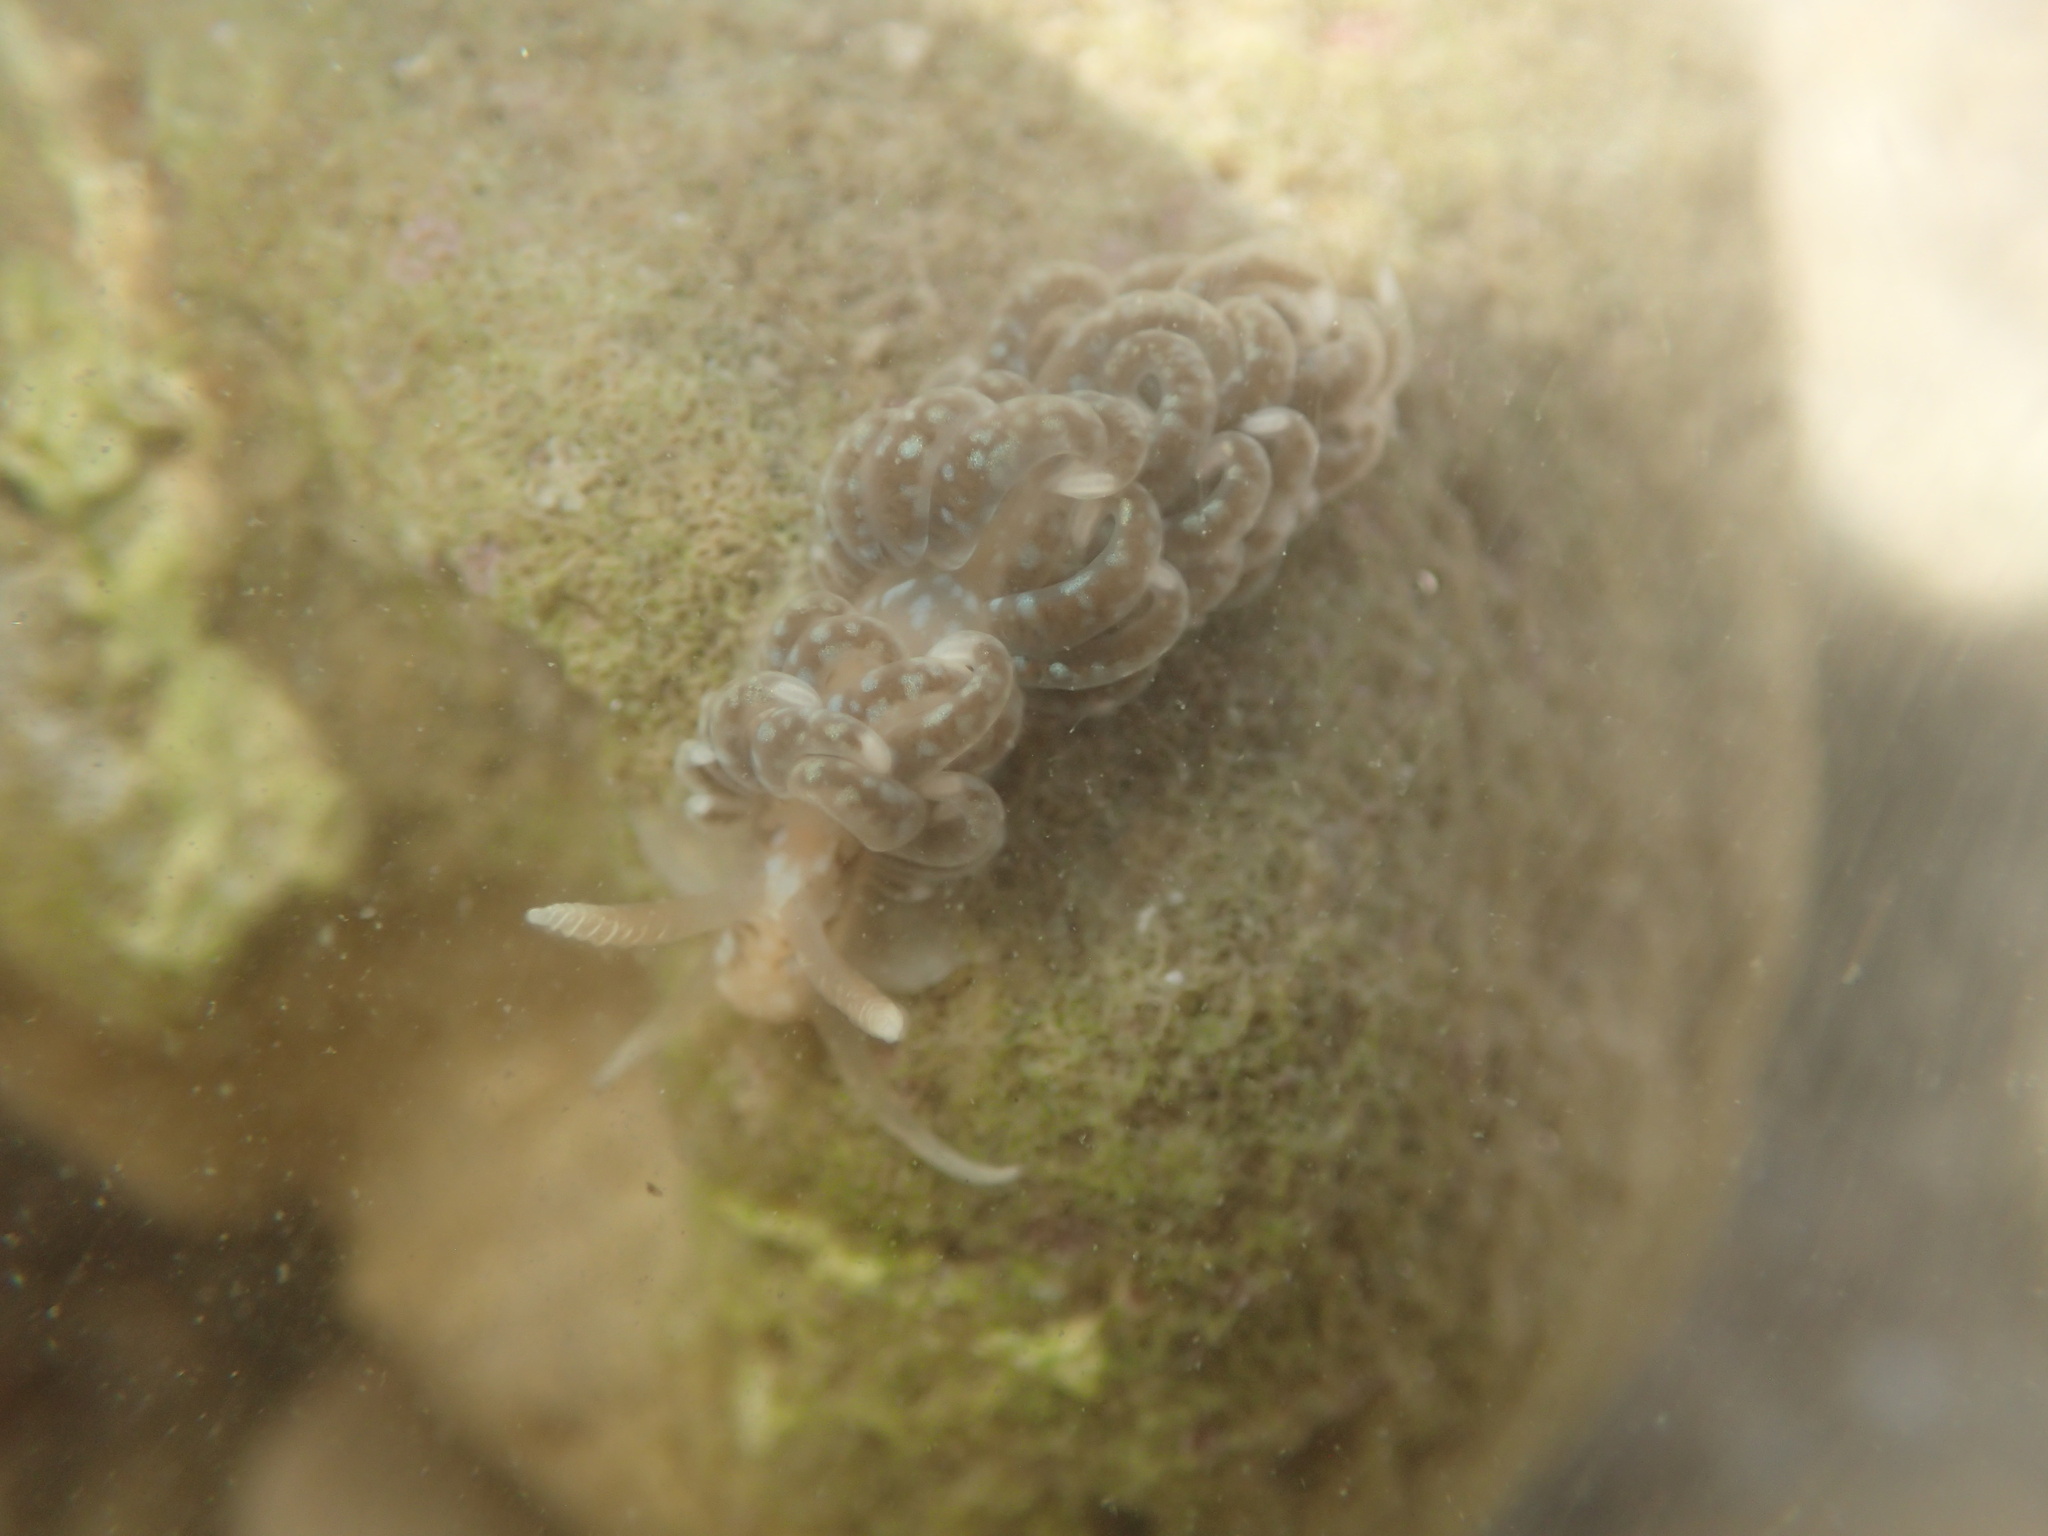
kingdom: Animalia
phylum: Mollusca
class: Gastropoda
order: Nudibranchia
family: Aeolidiidae
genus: Spurilla
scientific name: Spurilla braziliana
